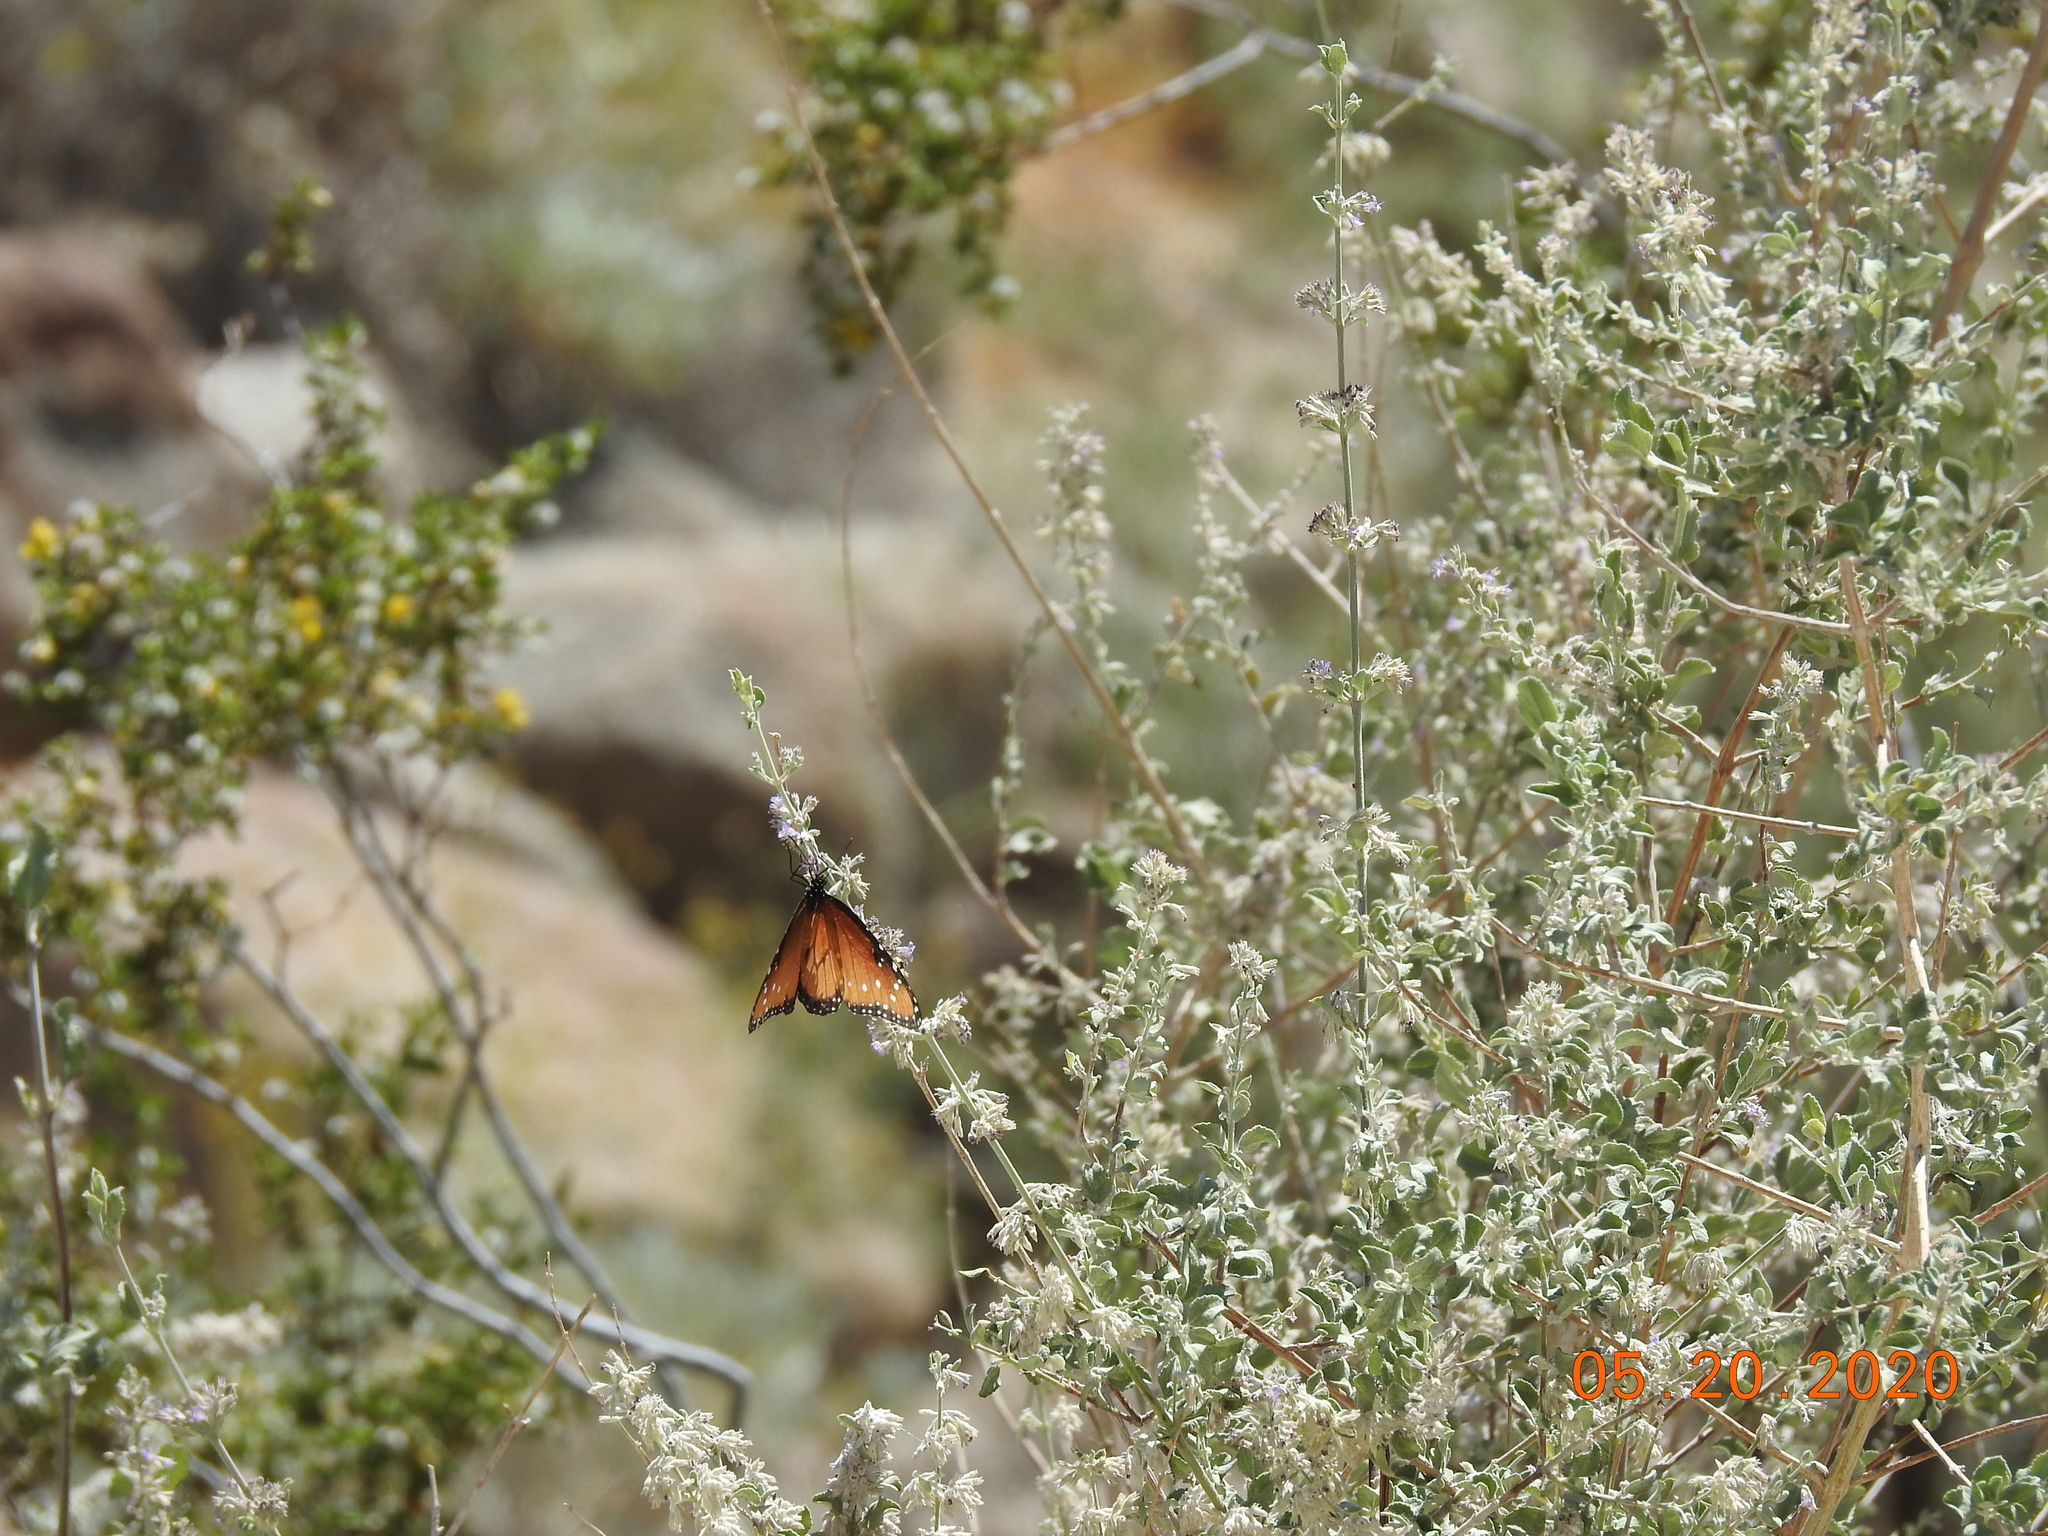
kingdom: Animalia
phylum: Arthropoda
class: Insecta
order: Lepidoptera
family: Nymphalidae
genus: Danaus
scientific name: Danaus gilippus
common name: Queen
